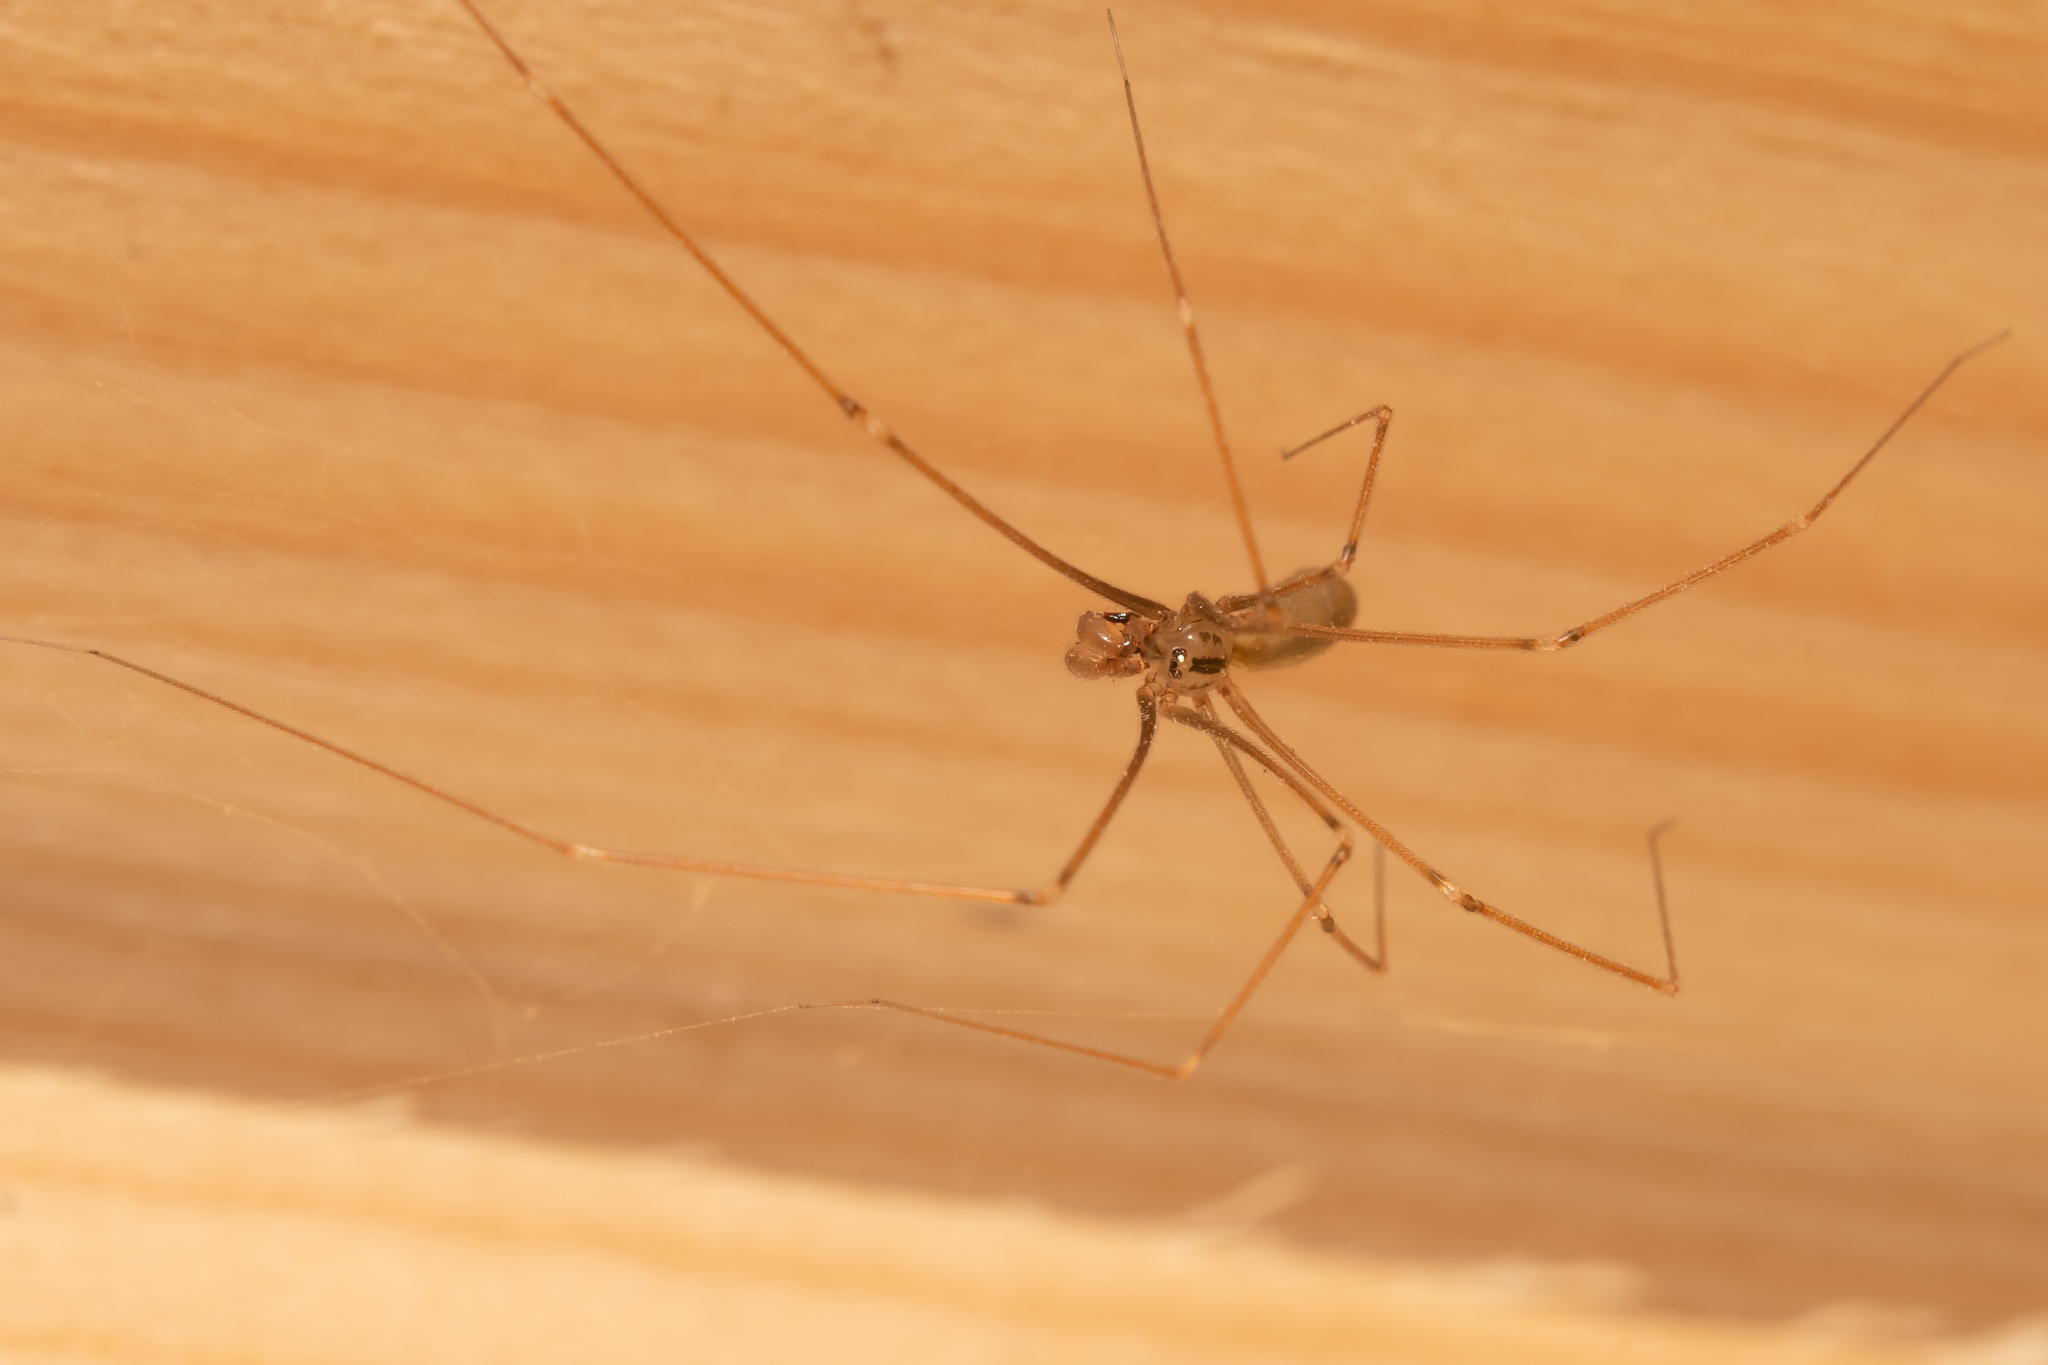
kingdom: Animalia
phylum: Arthropoda
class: Arachnida
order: Araneae
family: Pholcidae
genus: Pholcus
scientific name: Pholcus opilionoides
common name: Daddylongleg spider
